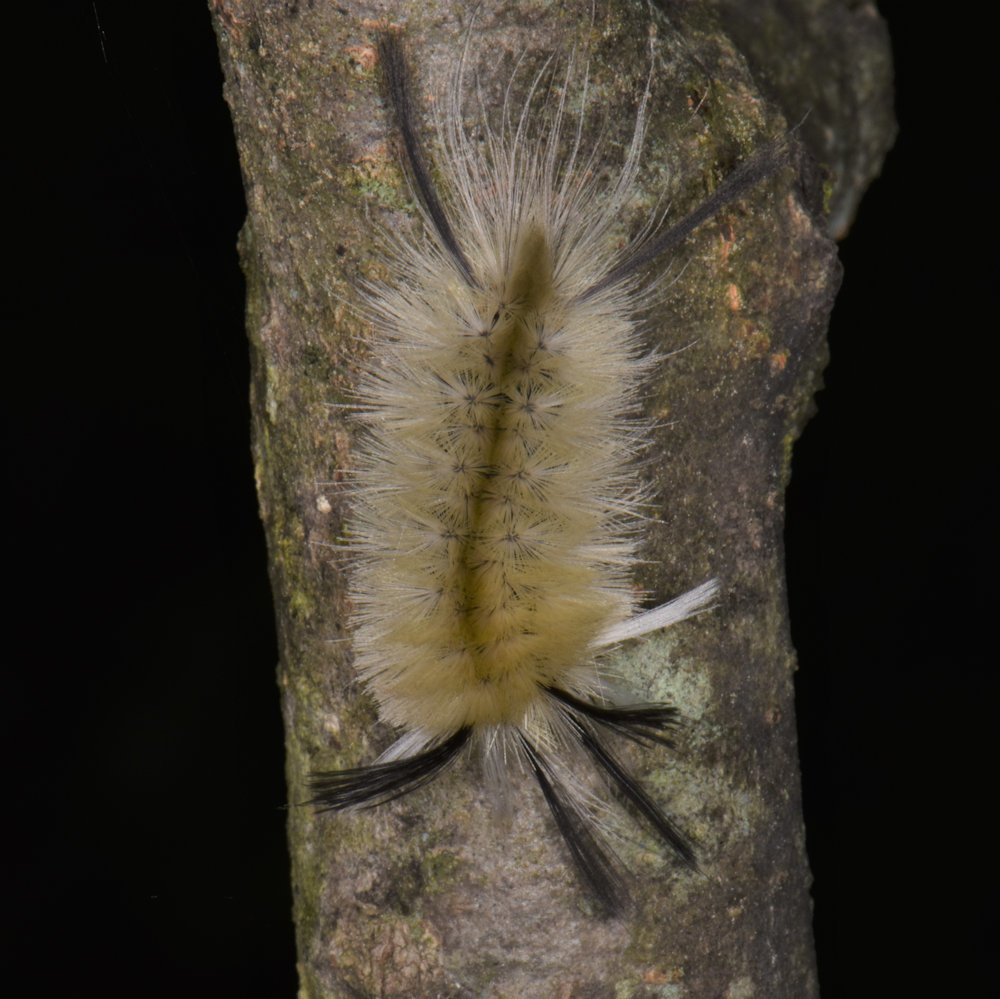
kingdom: Animalia
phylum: Arthropoda
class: Insecta
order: Lepidoptera
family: Erebidae
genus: Halysidota
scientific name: Halysidota tessellaris
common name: Banded tussock moth
